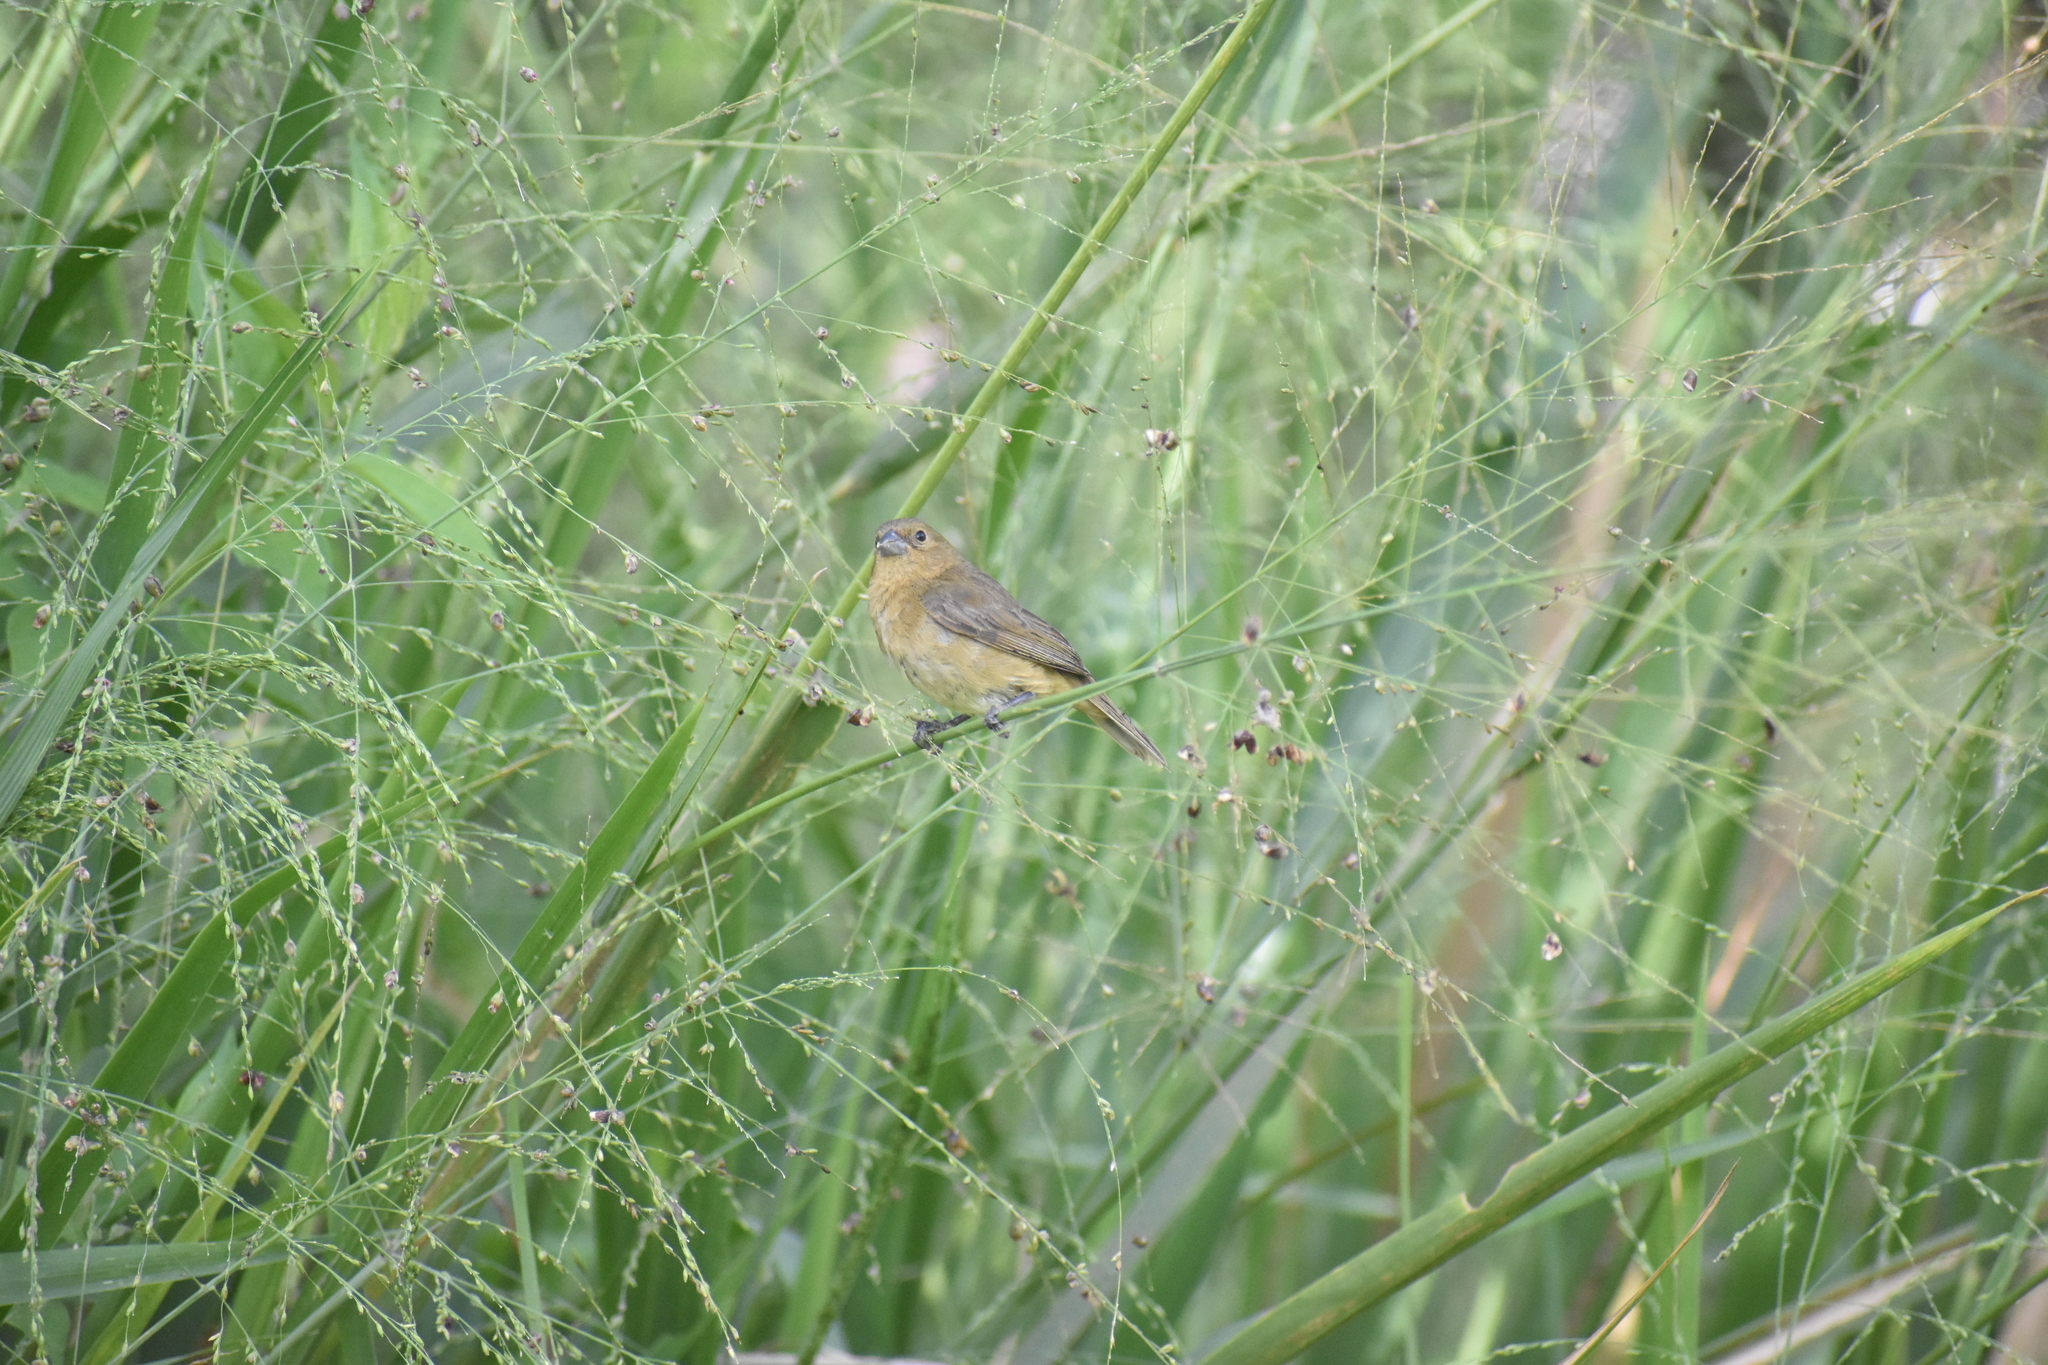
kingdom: Animalia
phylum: Chordata
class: Aves
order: Passeriformes
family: Thraupidae
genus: Sporophila
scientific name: Sporophila nigricollis
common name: Yellow-bellied seedeater
